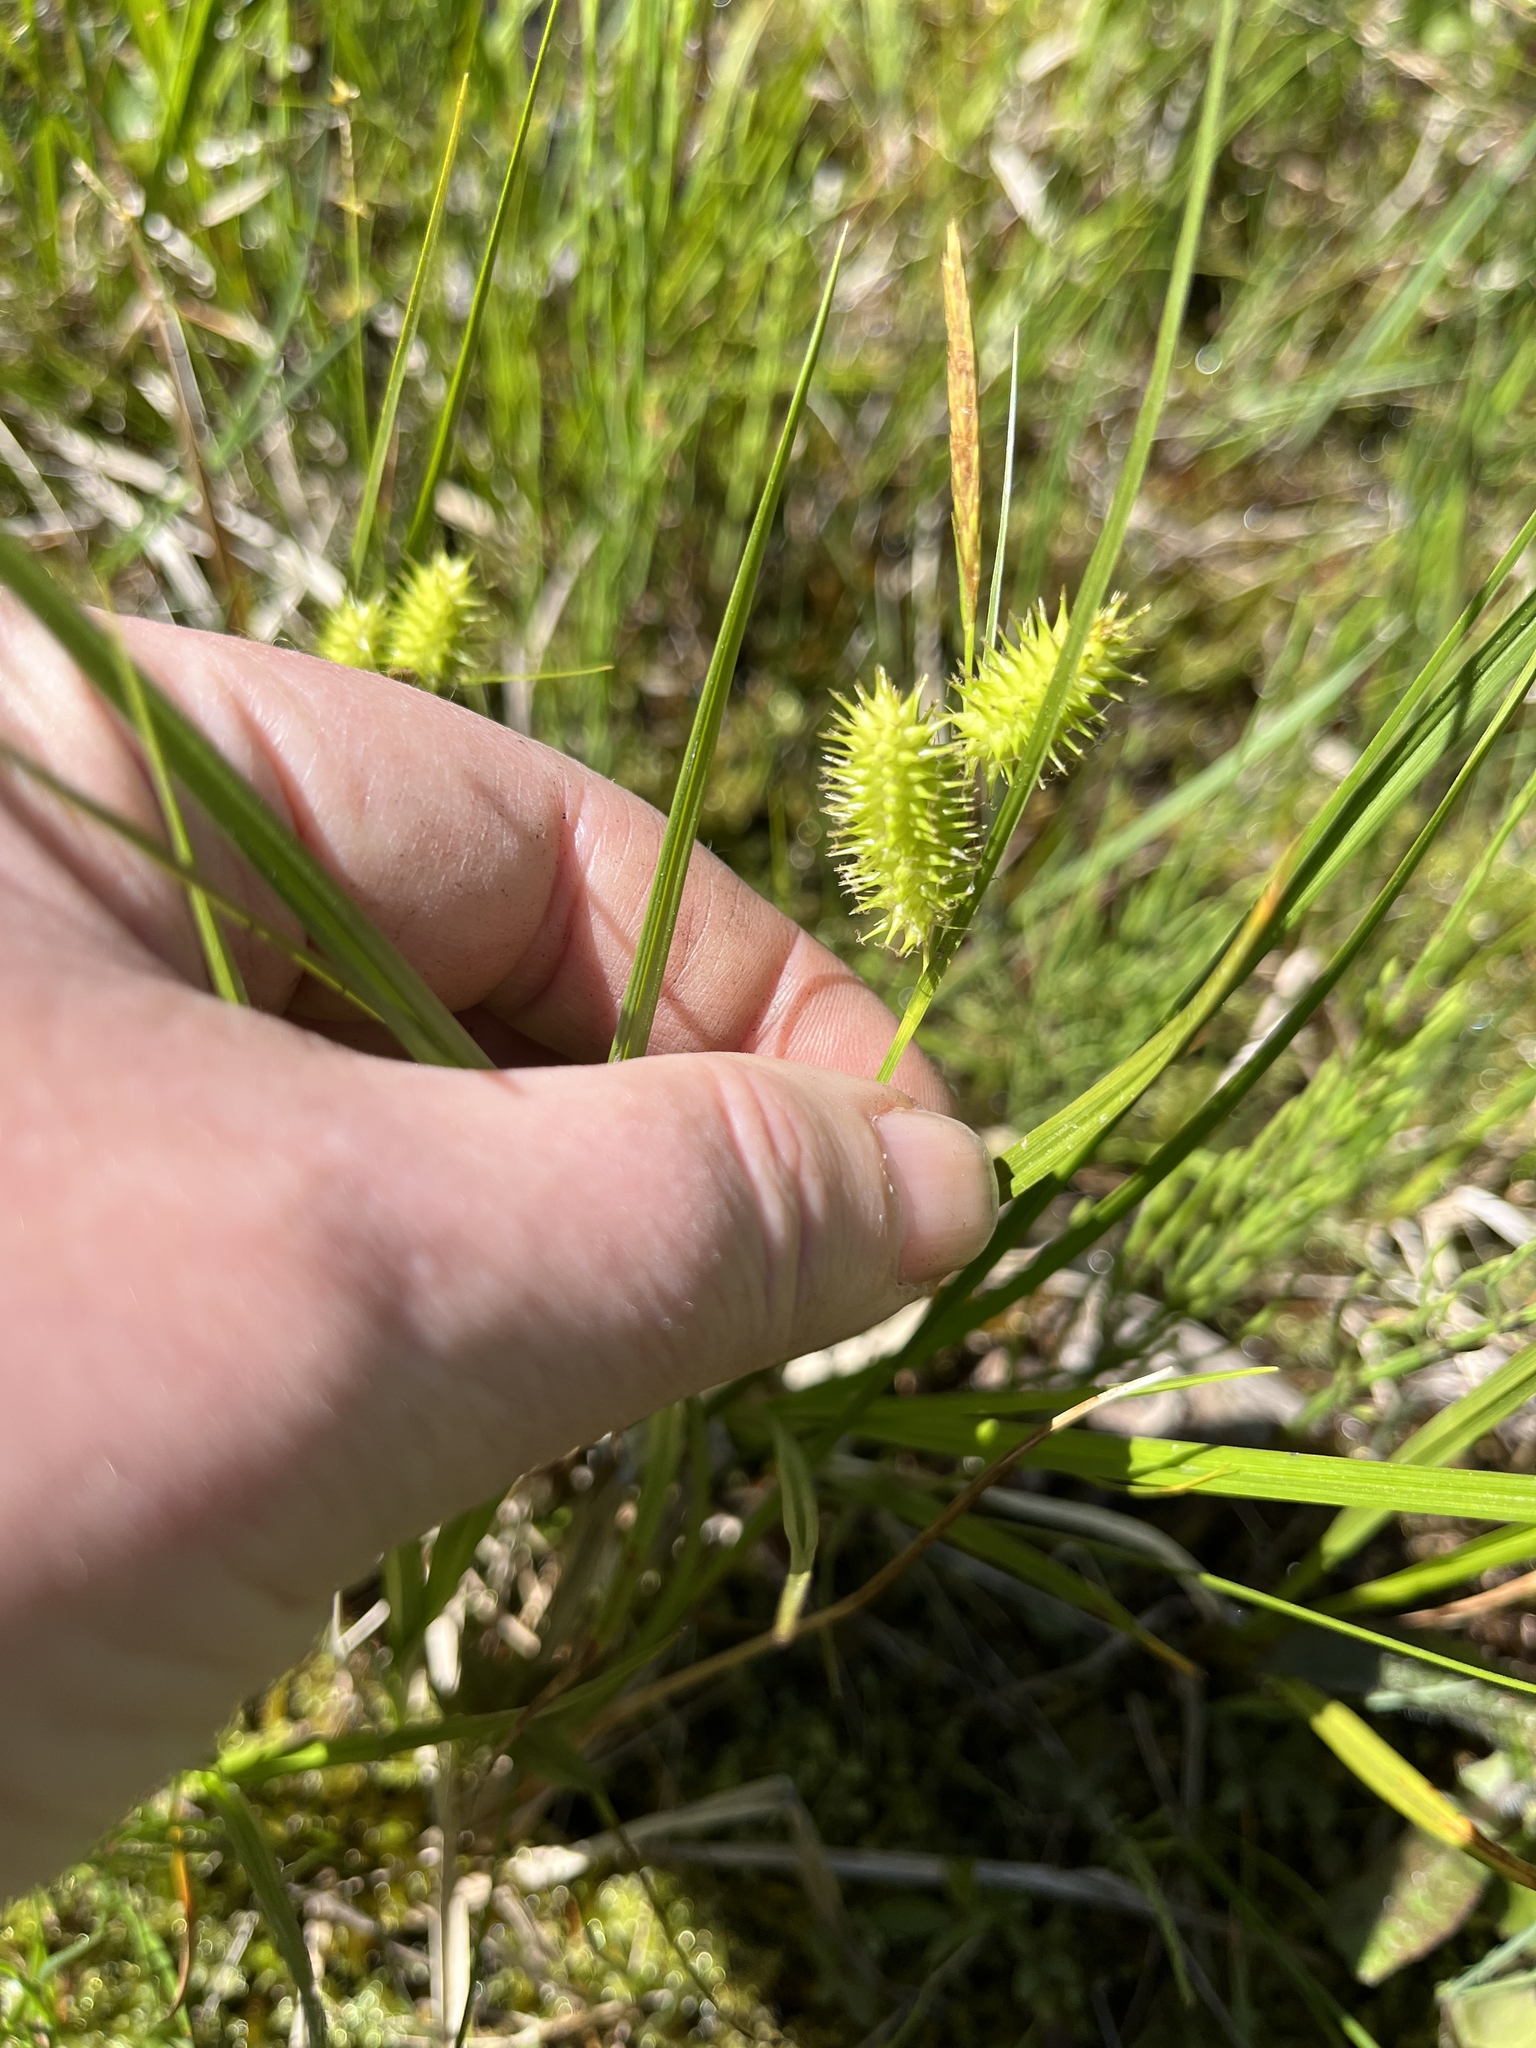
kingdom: Plantae
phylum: Tracheophyta
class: Liliopsida
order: Poales
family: Cyperaceae
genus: Carex
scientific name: Carex hystericina
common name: Bottlebrush sedge
